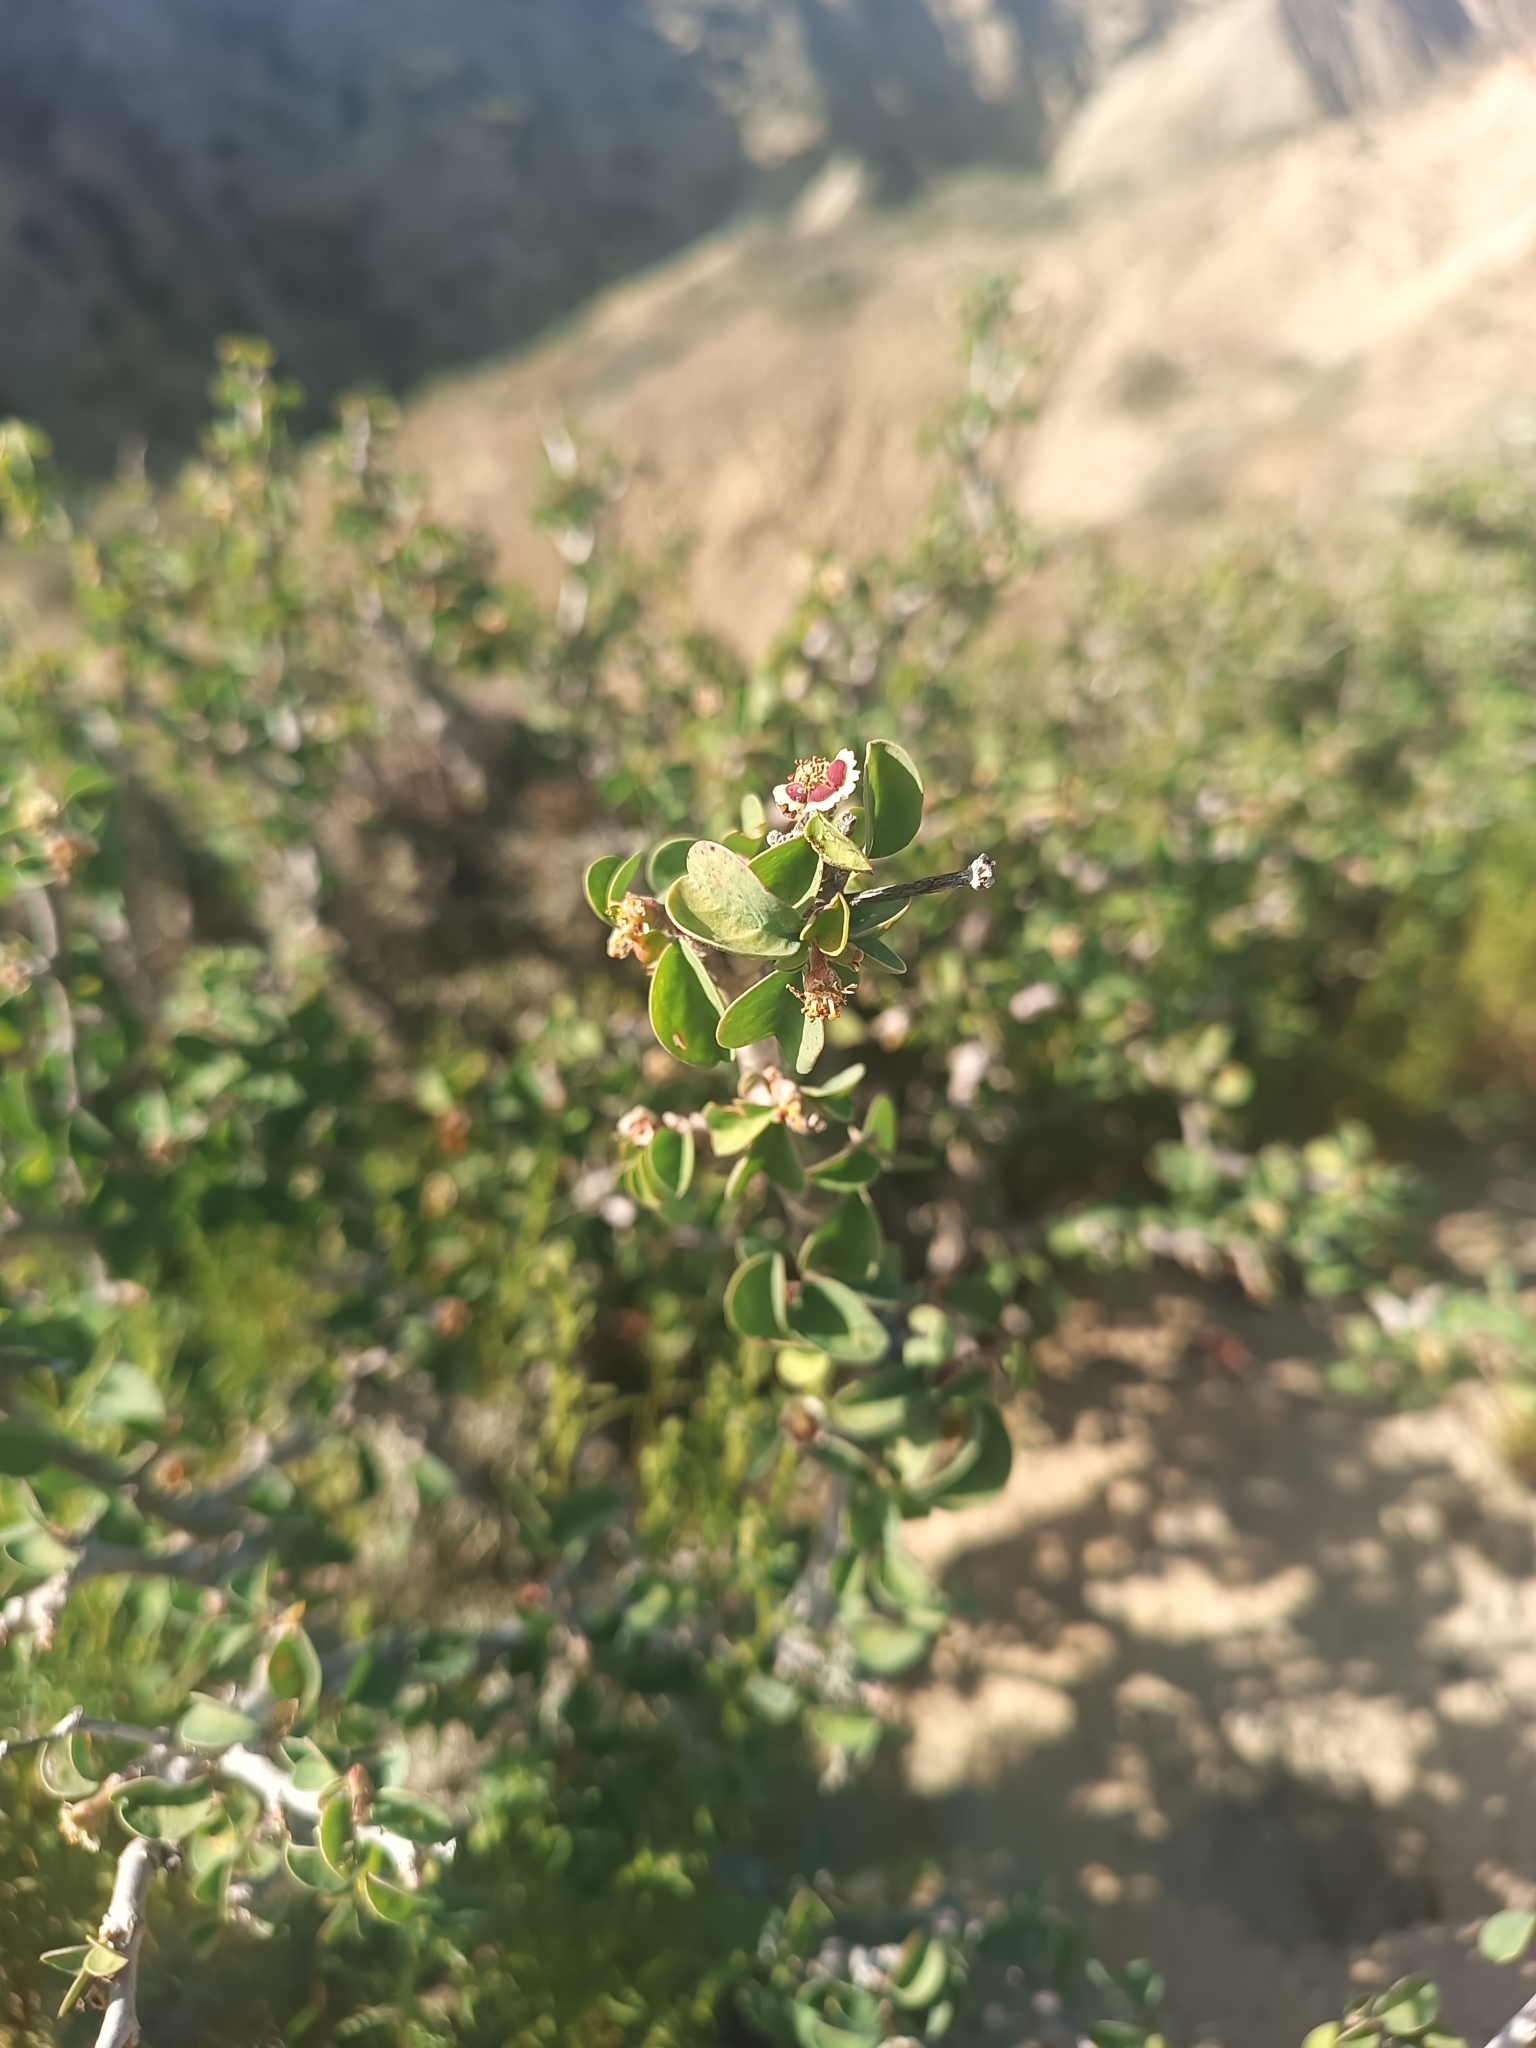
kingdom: Plantae
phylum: Tracheophyta
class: Magnoliopsida
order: Malpighiales
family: Euphorbiaceae
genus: Euphorbia
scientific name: Euphorbia misera
